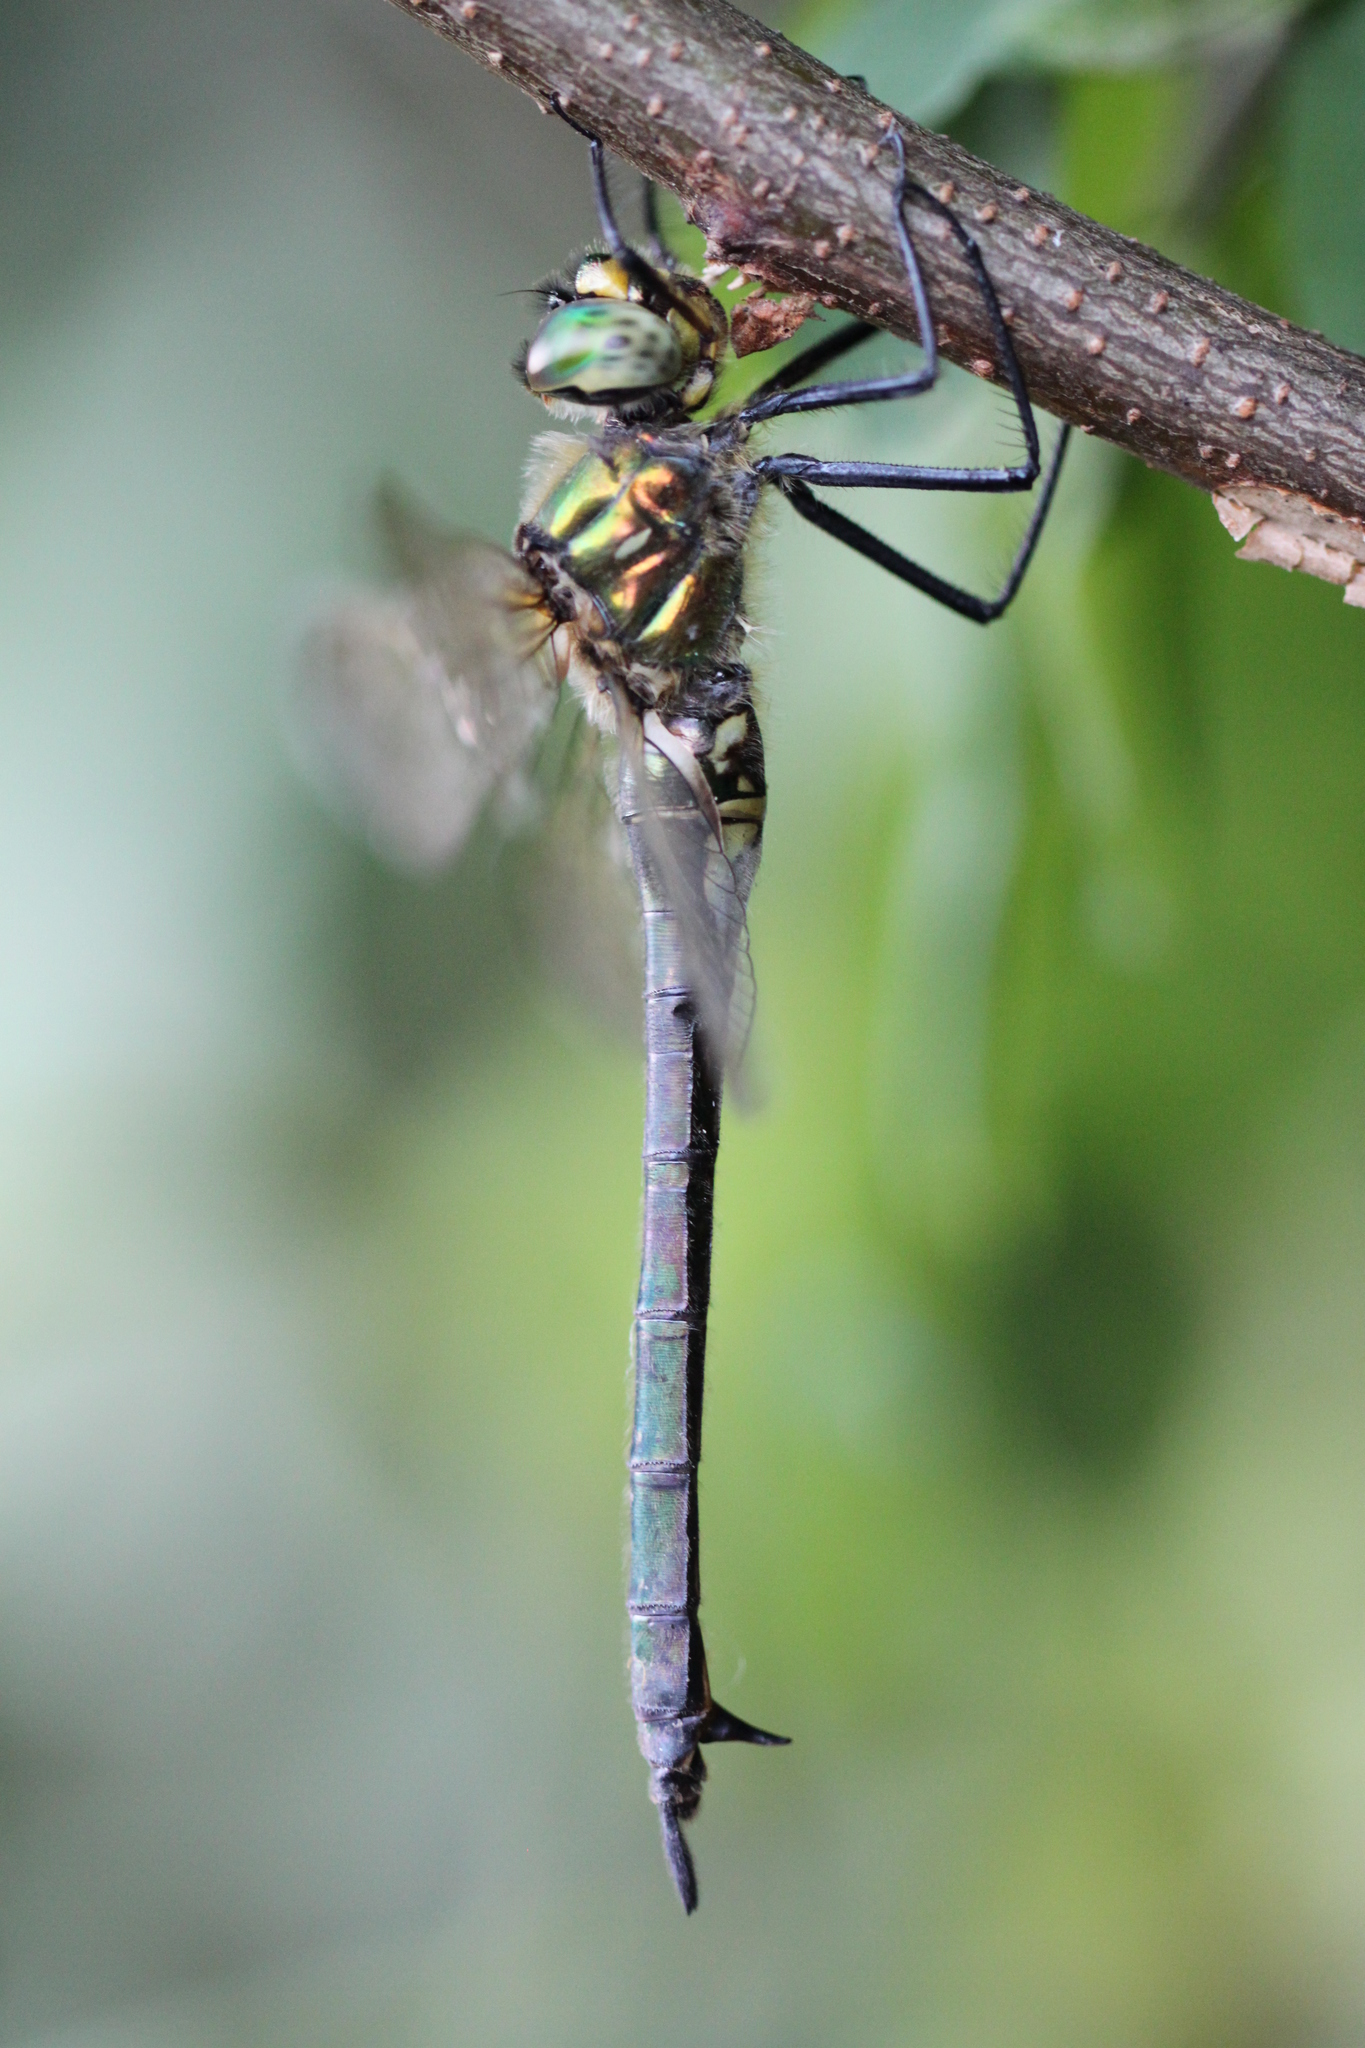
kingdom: Animalia
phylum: Arthropoda
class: Insecta
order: Odonata
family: Corduliidae
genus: Somatochlora
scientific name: Somatochlora meridionalis
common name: Balkan emerald
